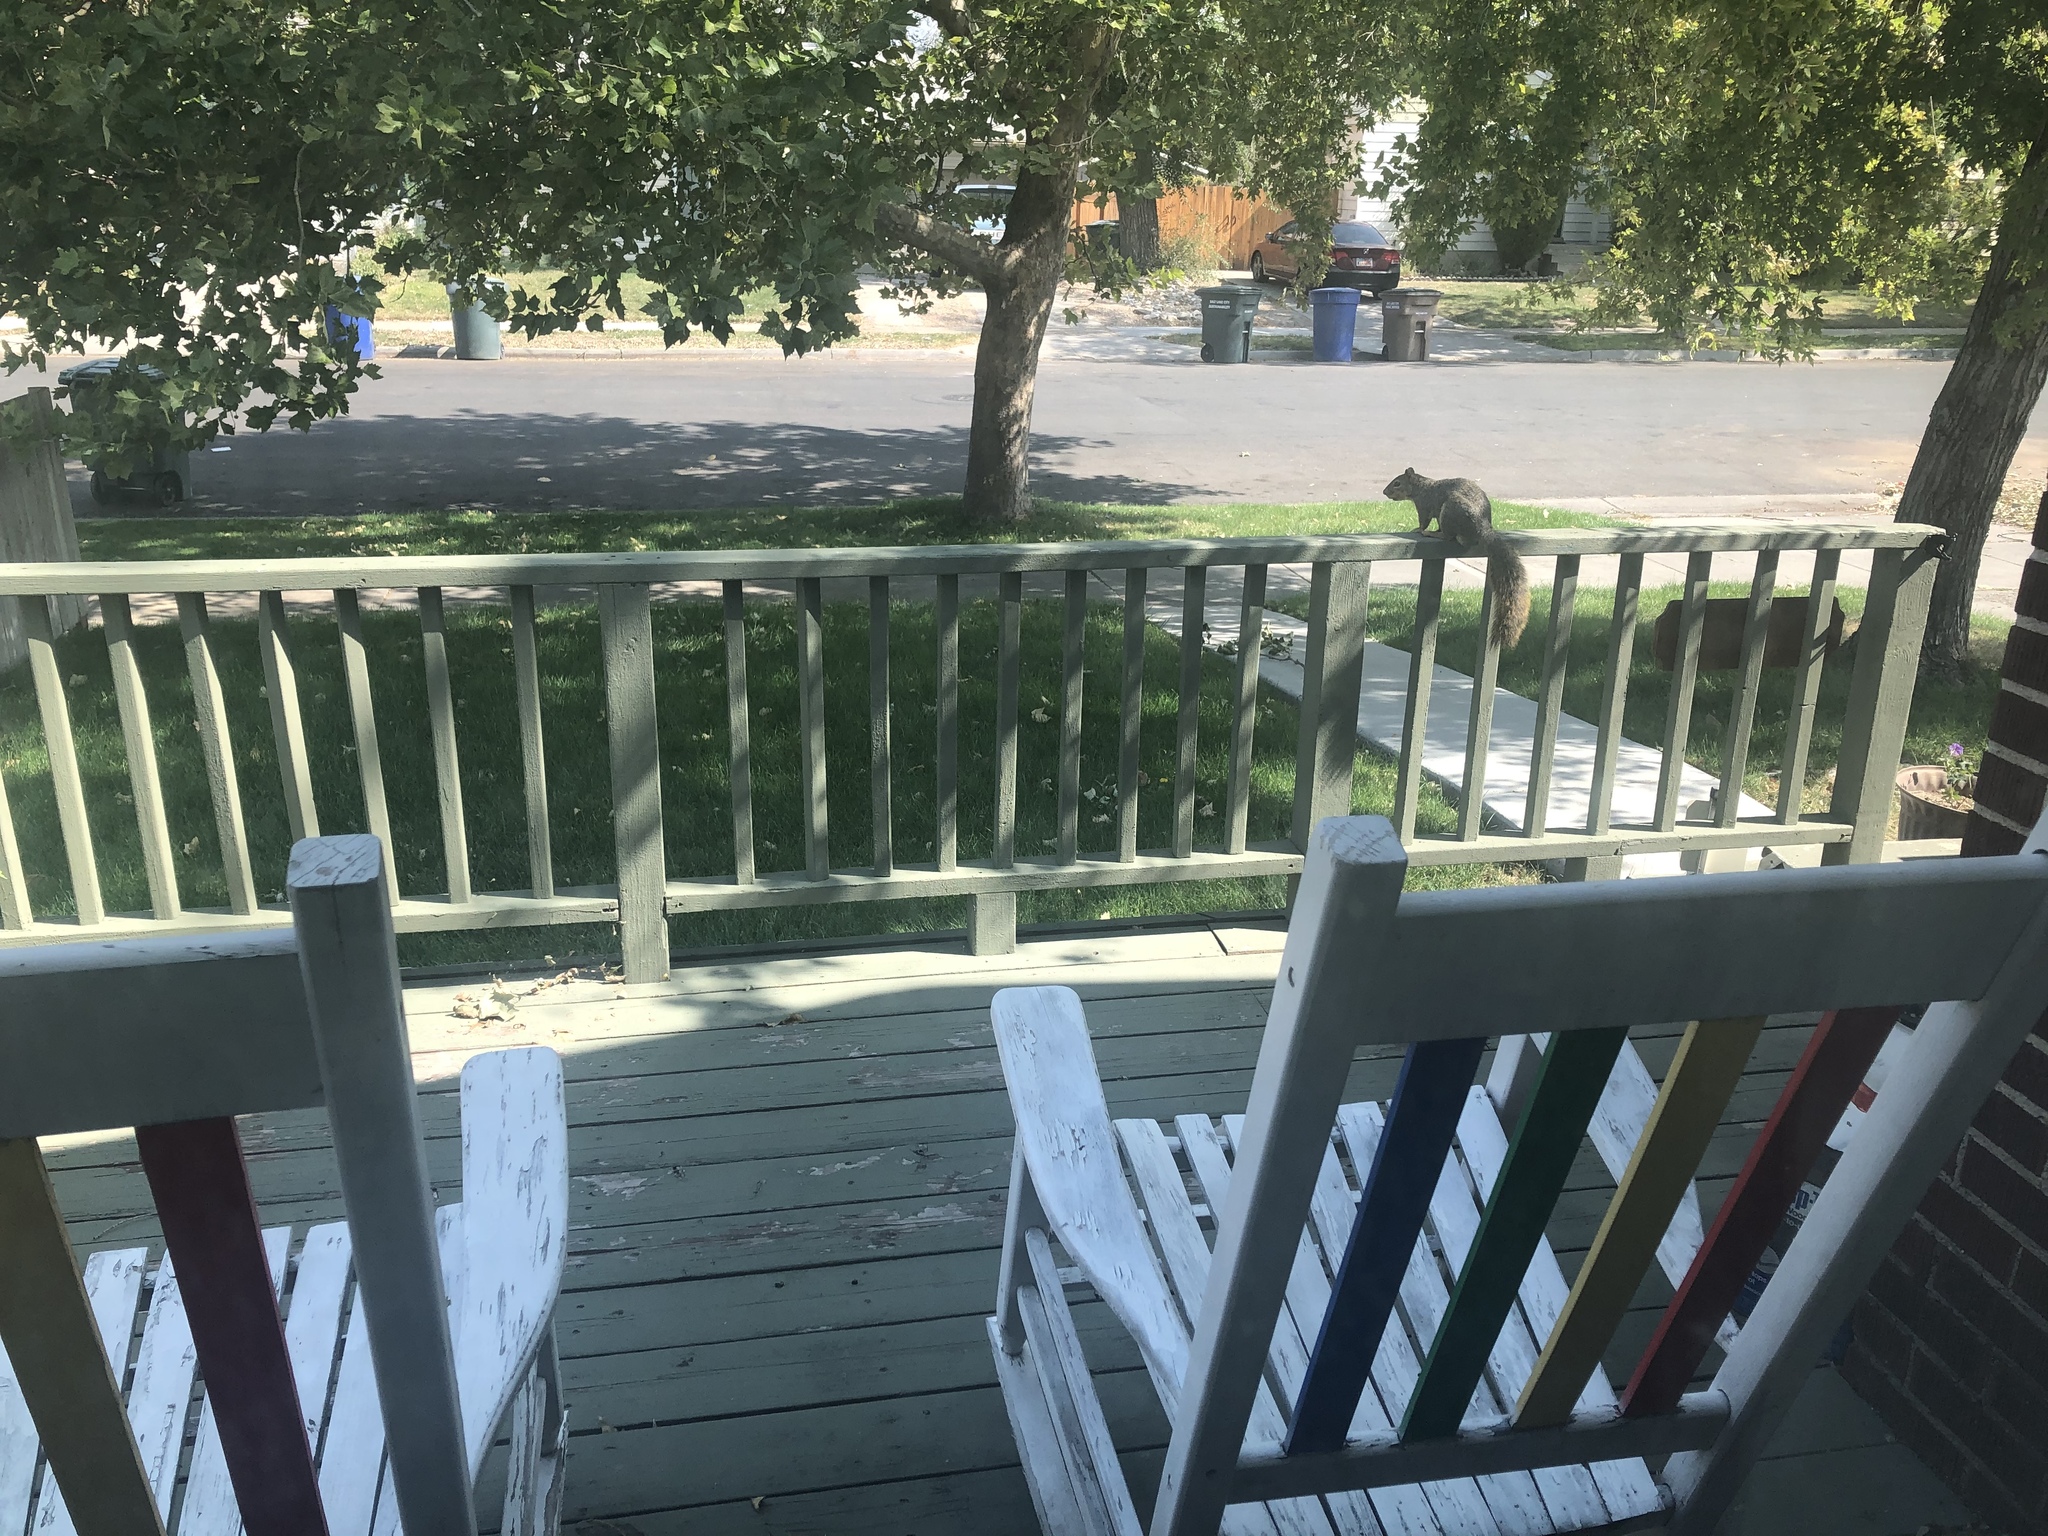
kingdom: Animalia
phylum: Chordata
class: Mammalia
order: Rodentia
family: Sciuridae
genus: Sciurus
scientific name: Sciurus niger
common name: Fox squirrel
